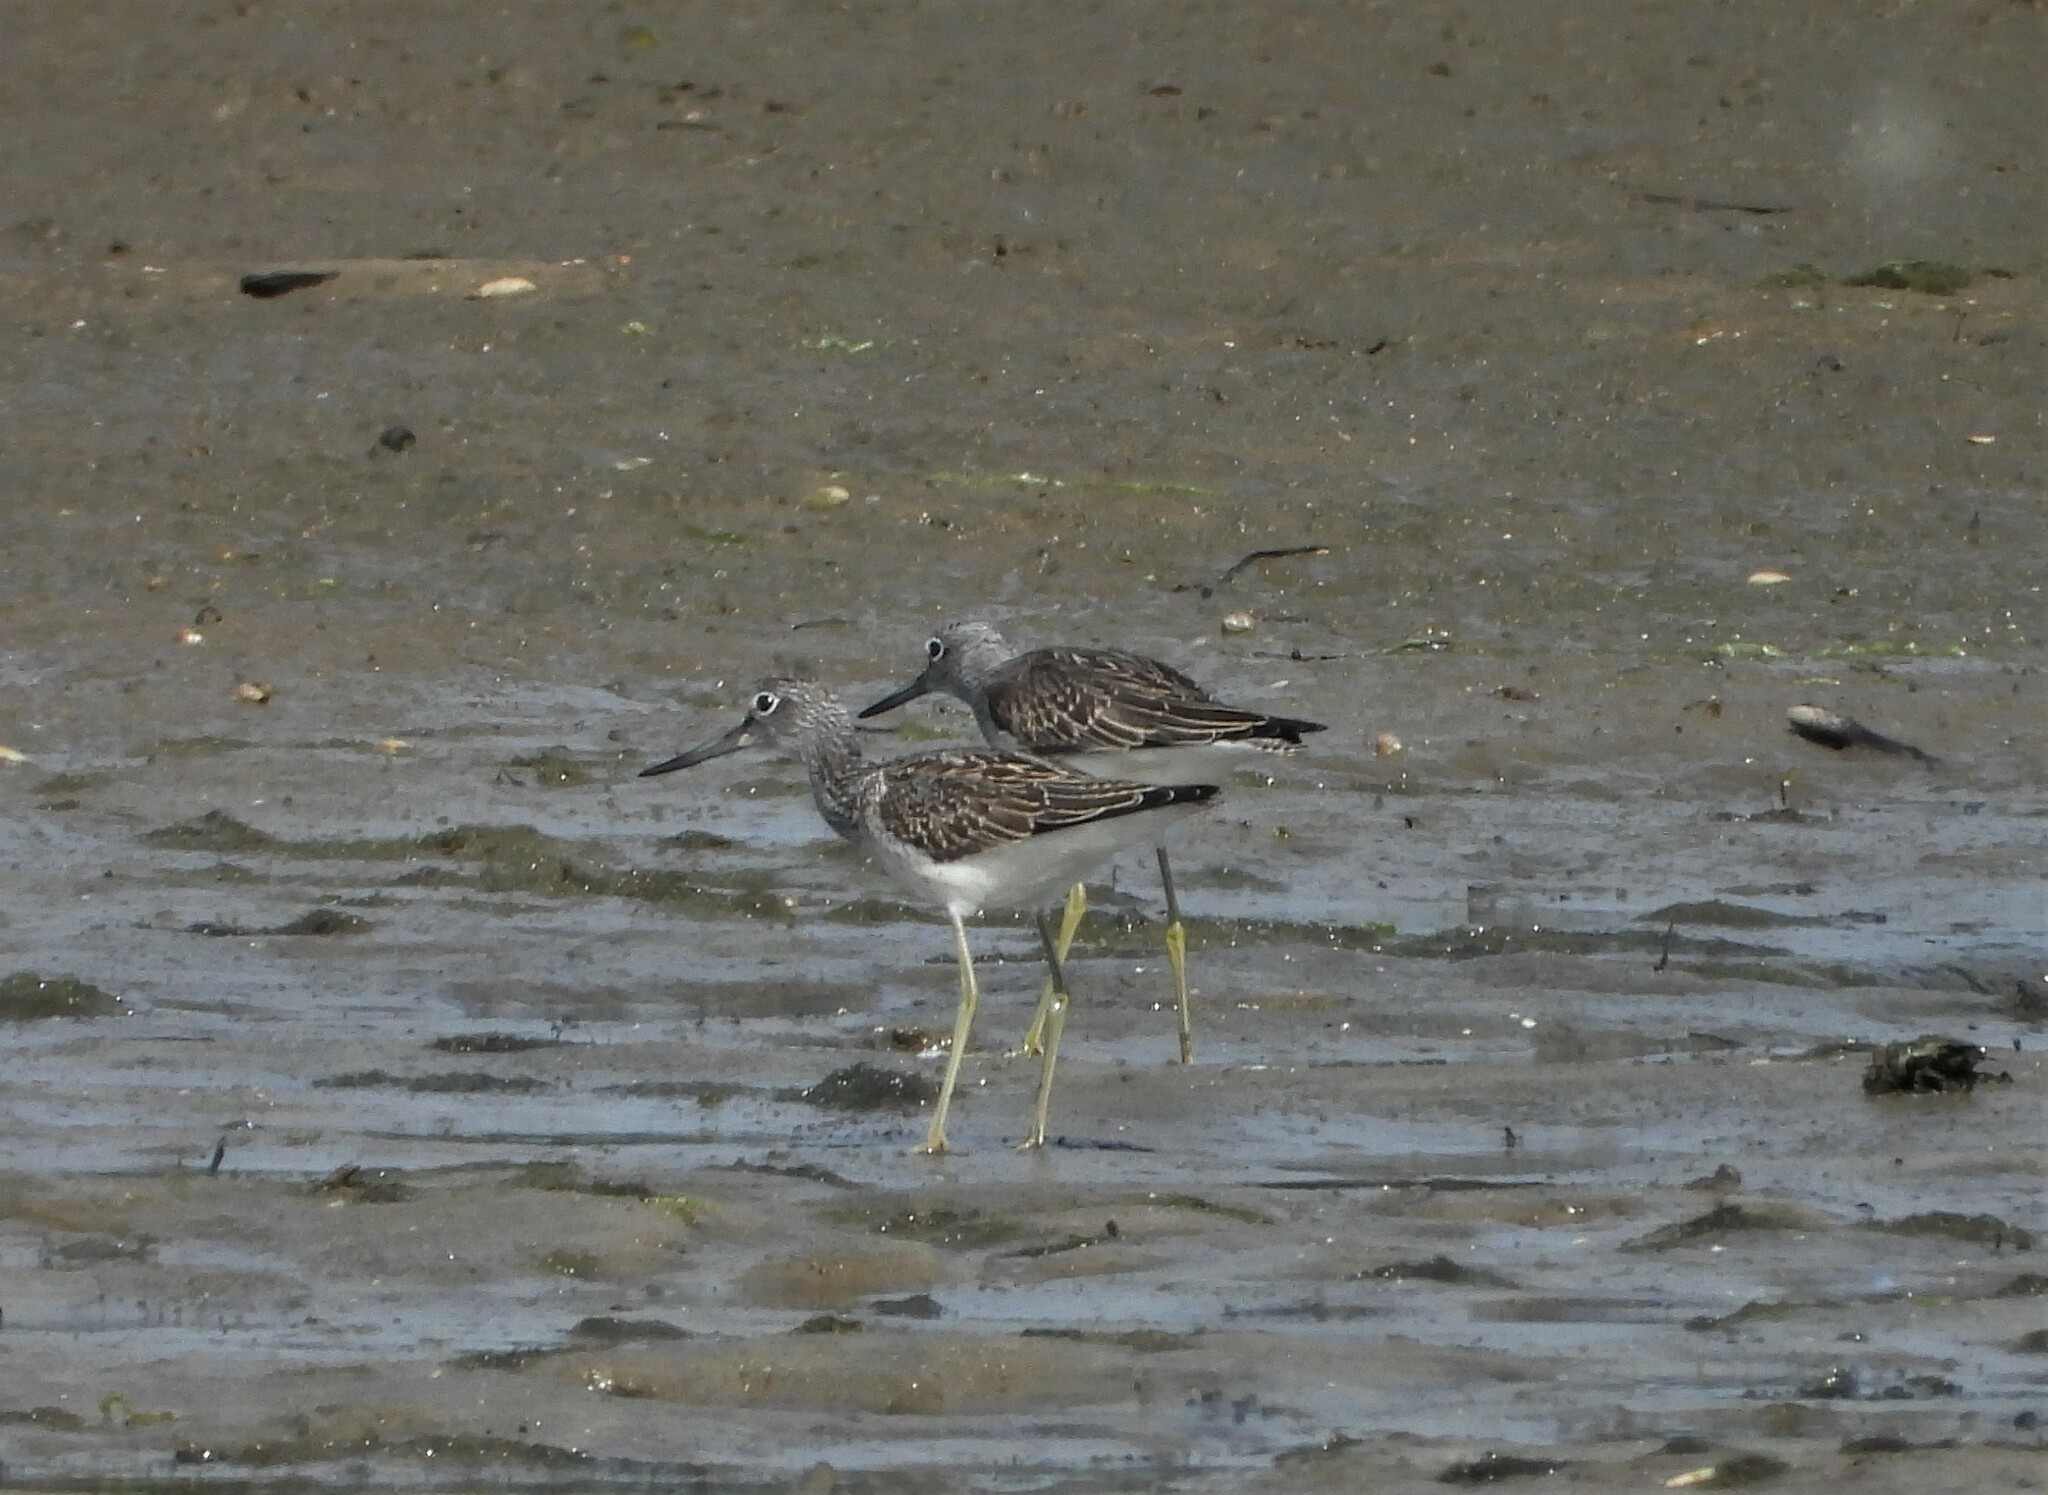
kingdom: Animalia
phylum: Chordata
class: Aves
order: Charadriiformes
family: Scolopacidae
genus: Tringa
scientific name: Tringa nebularia
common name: Common greenshank
